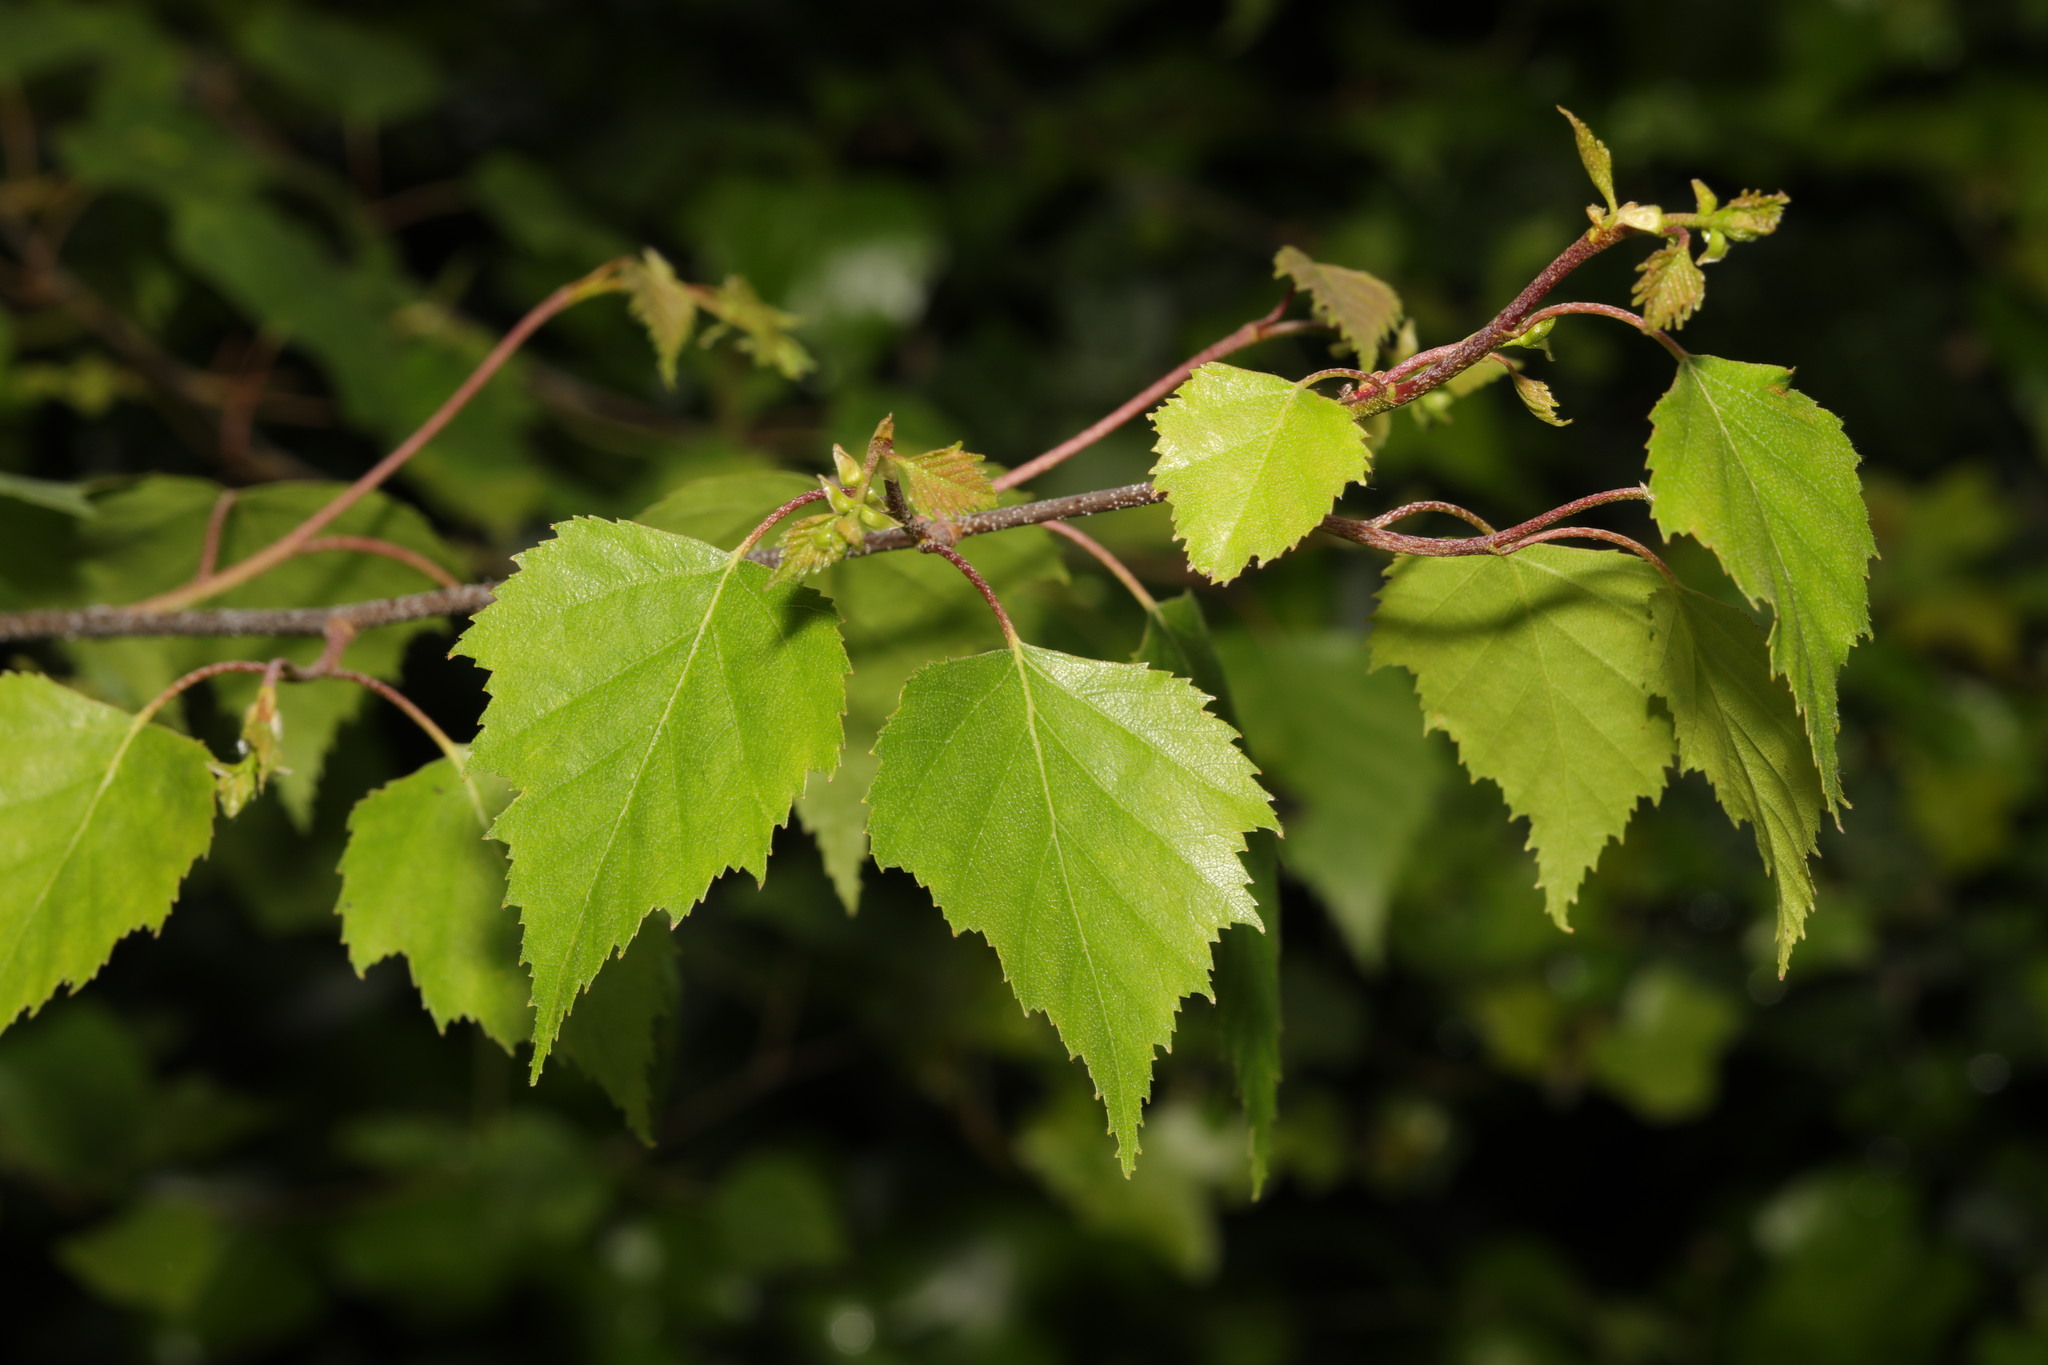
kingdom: Plantae
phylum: Tracheophyta
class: Magnoliopsida
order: Fagales
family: Betulaceae
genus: Betula
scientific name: Betula pendula
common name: Silver birch
